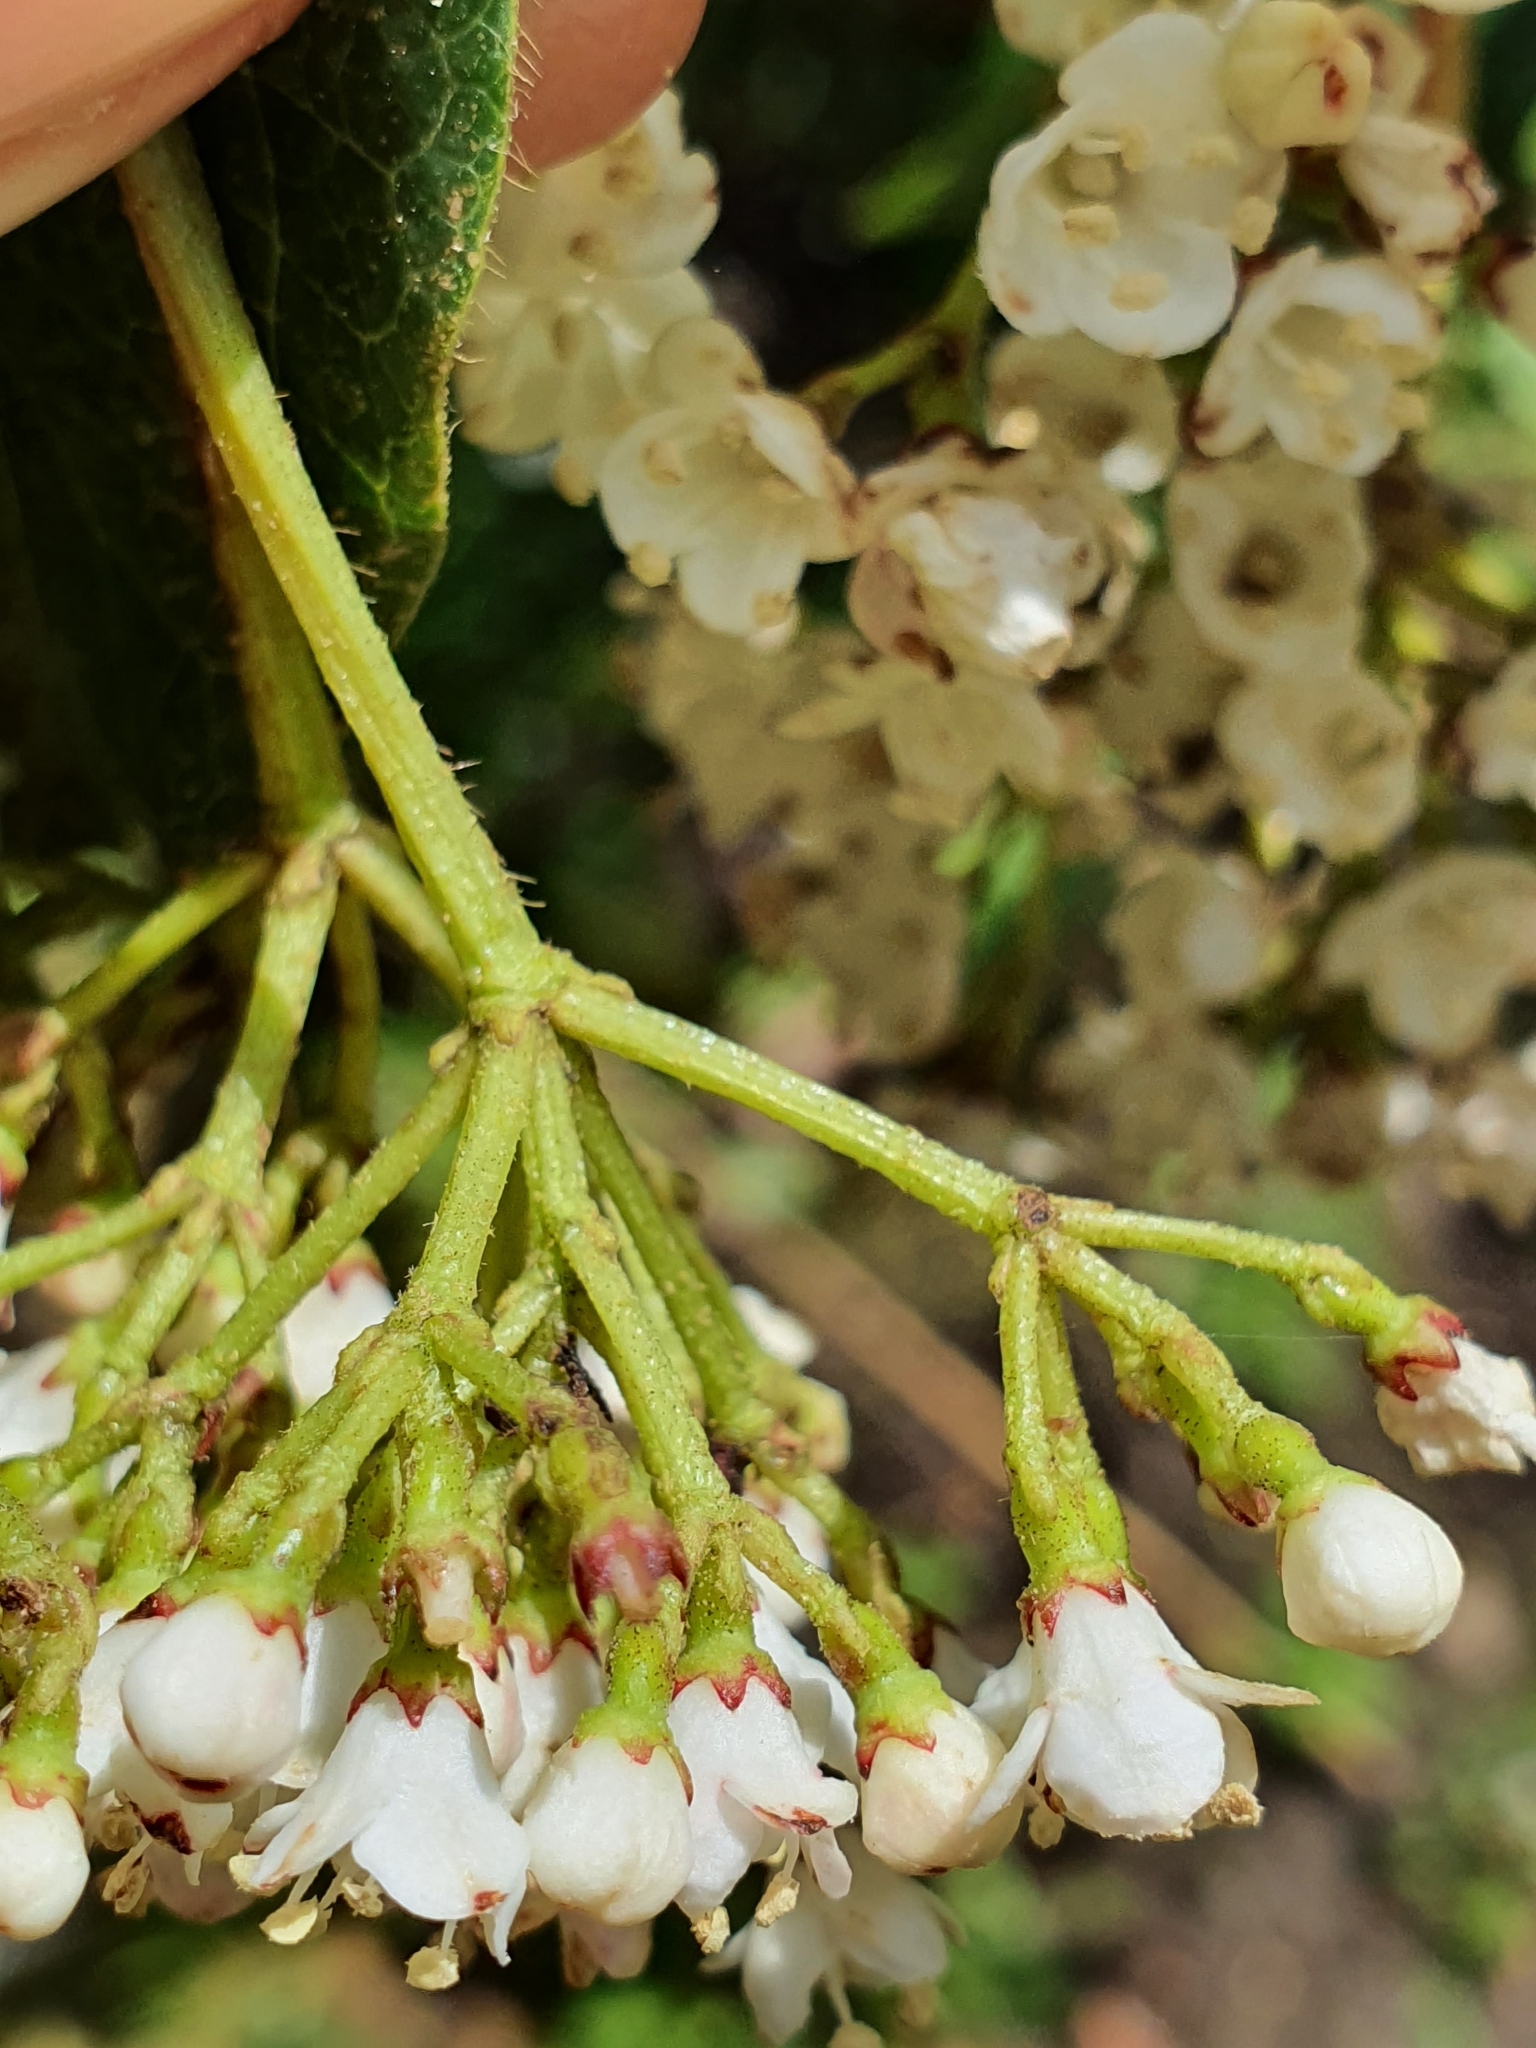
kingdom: Plantae
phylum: Tracheophyta
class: Magnoliopsida
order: Dipsacales
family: Viburnaceae
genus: Viburnum
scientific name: Viburnum tinus
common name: Laurustinus
